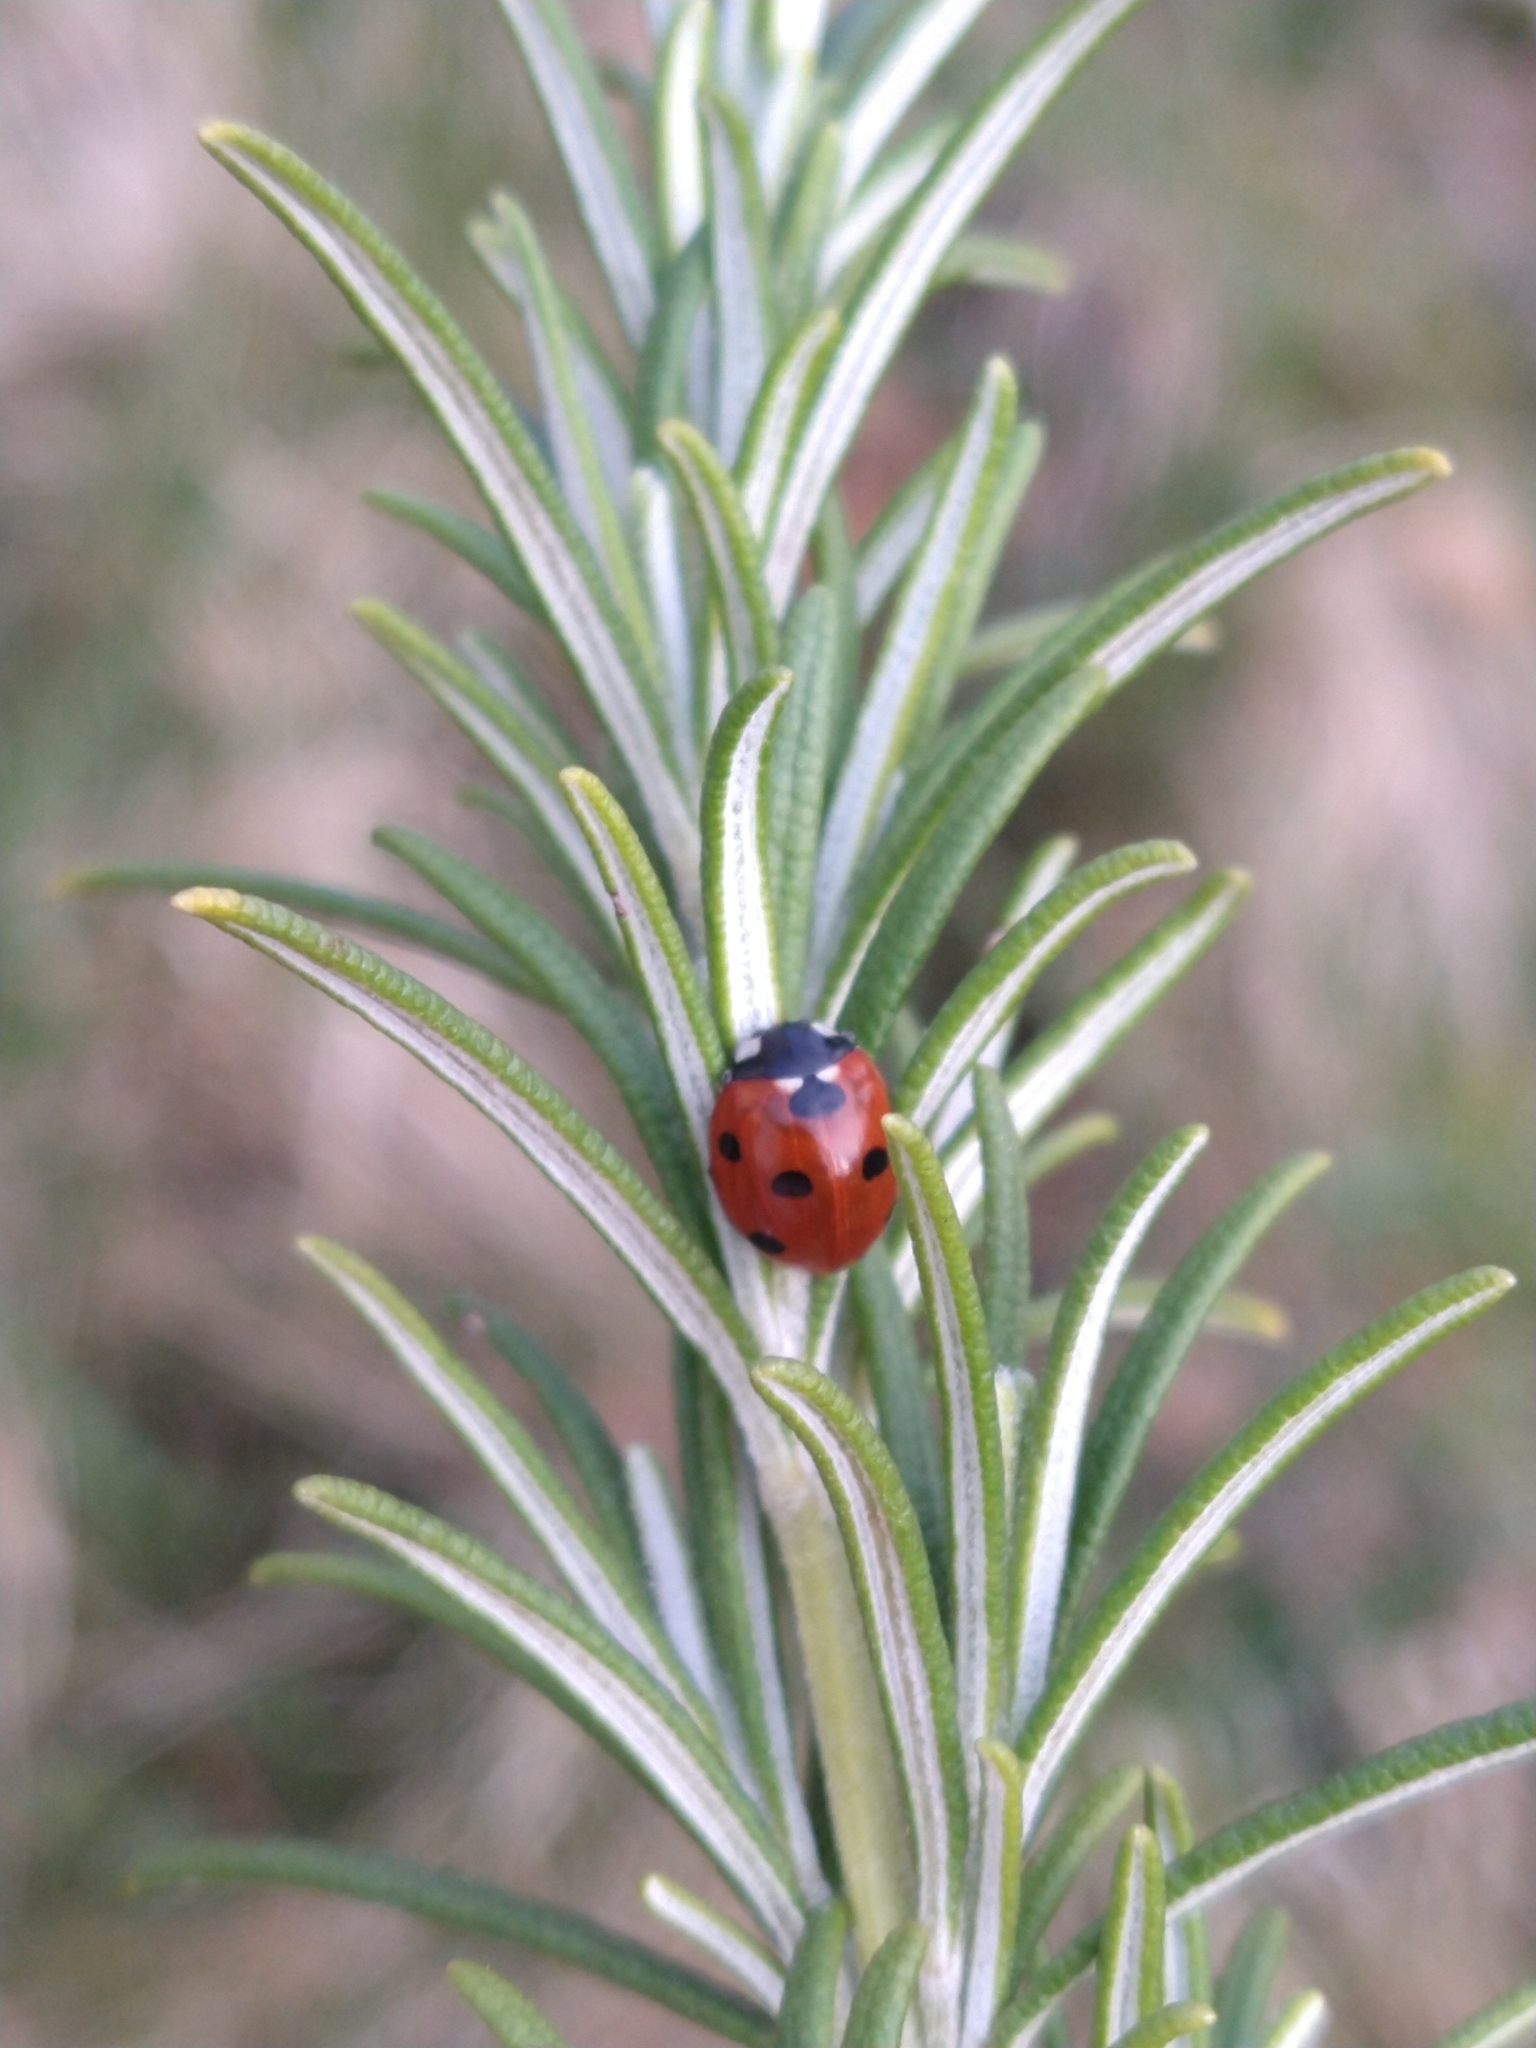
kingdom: Animalia
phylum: Arthropoda
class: Insecta
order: Coleoptera
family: Coccinellidae
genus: Coccinella
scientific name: Coccinella septempunctata
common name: Sevenspotted lady beetle
